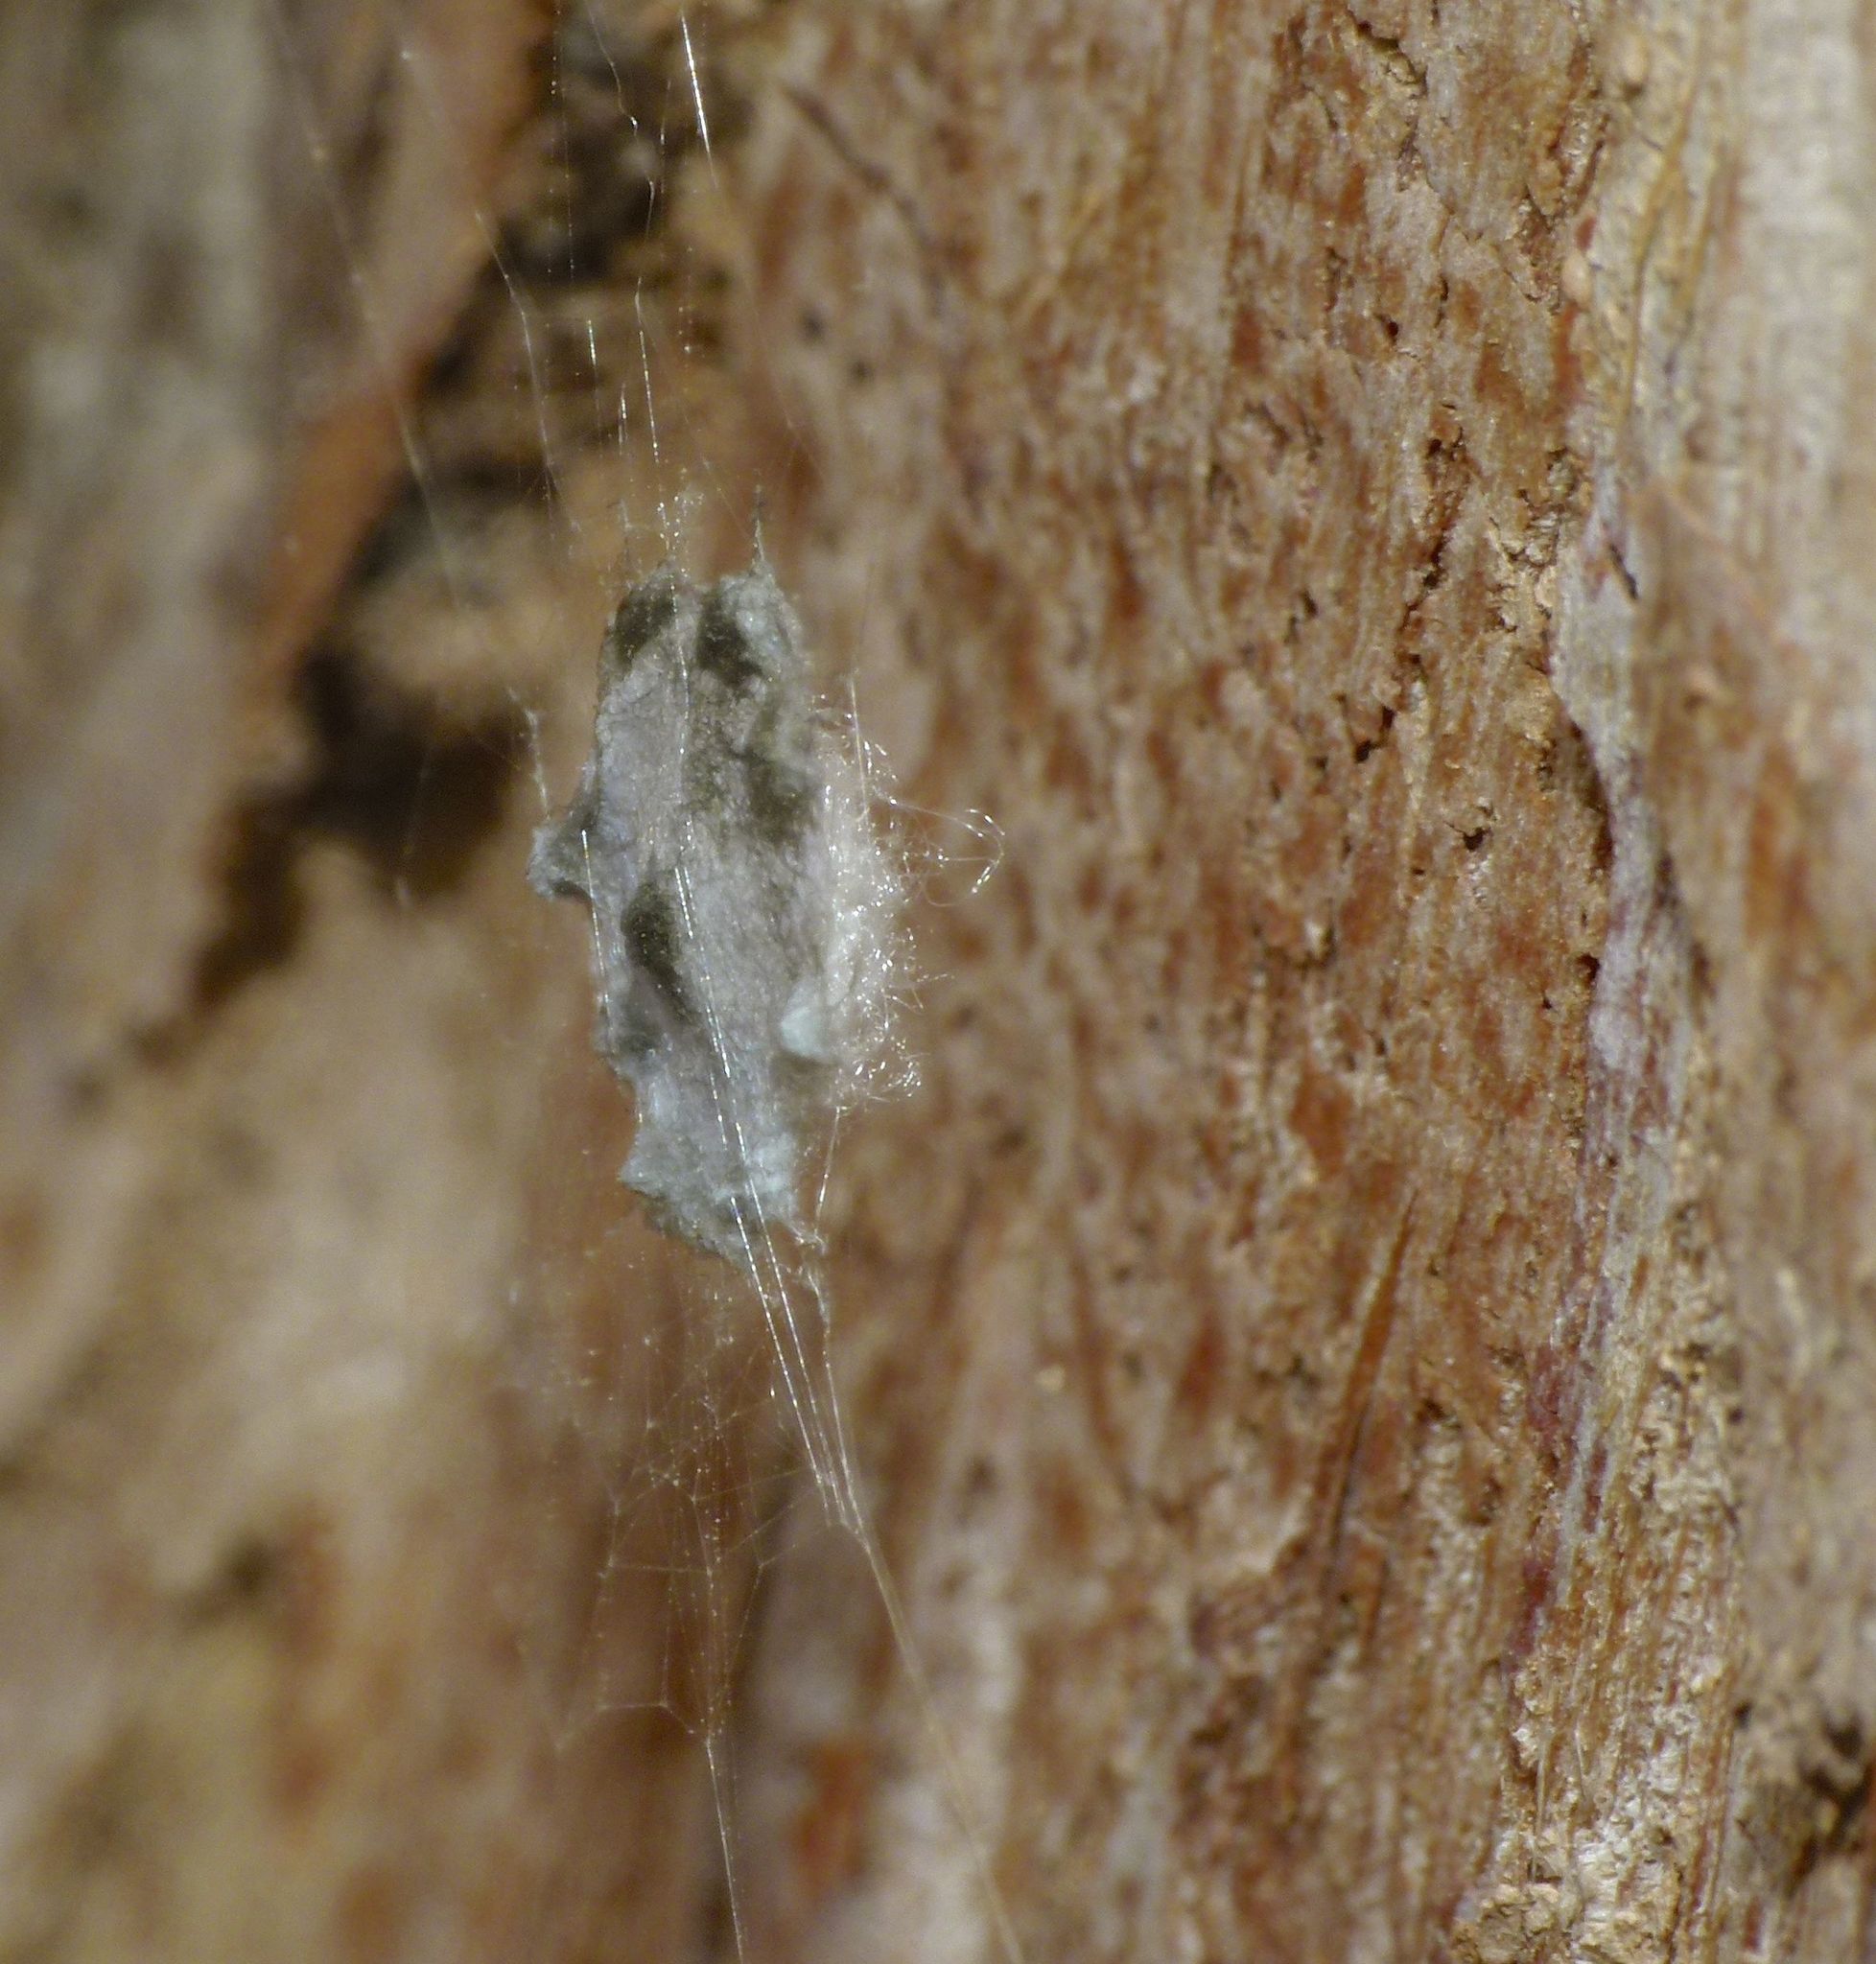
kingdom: Animalia
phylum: Arthropoda
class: Arachnida
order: Araneae
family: Araneidae
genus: Argiope
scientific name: Argiope ocyaloides
